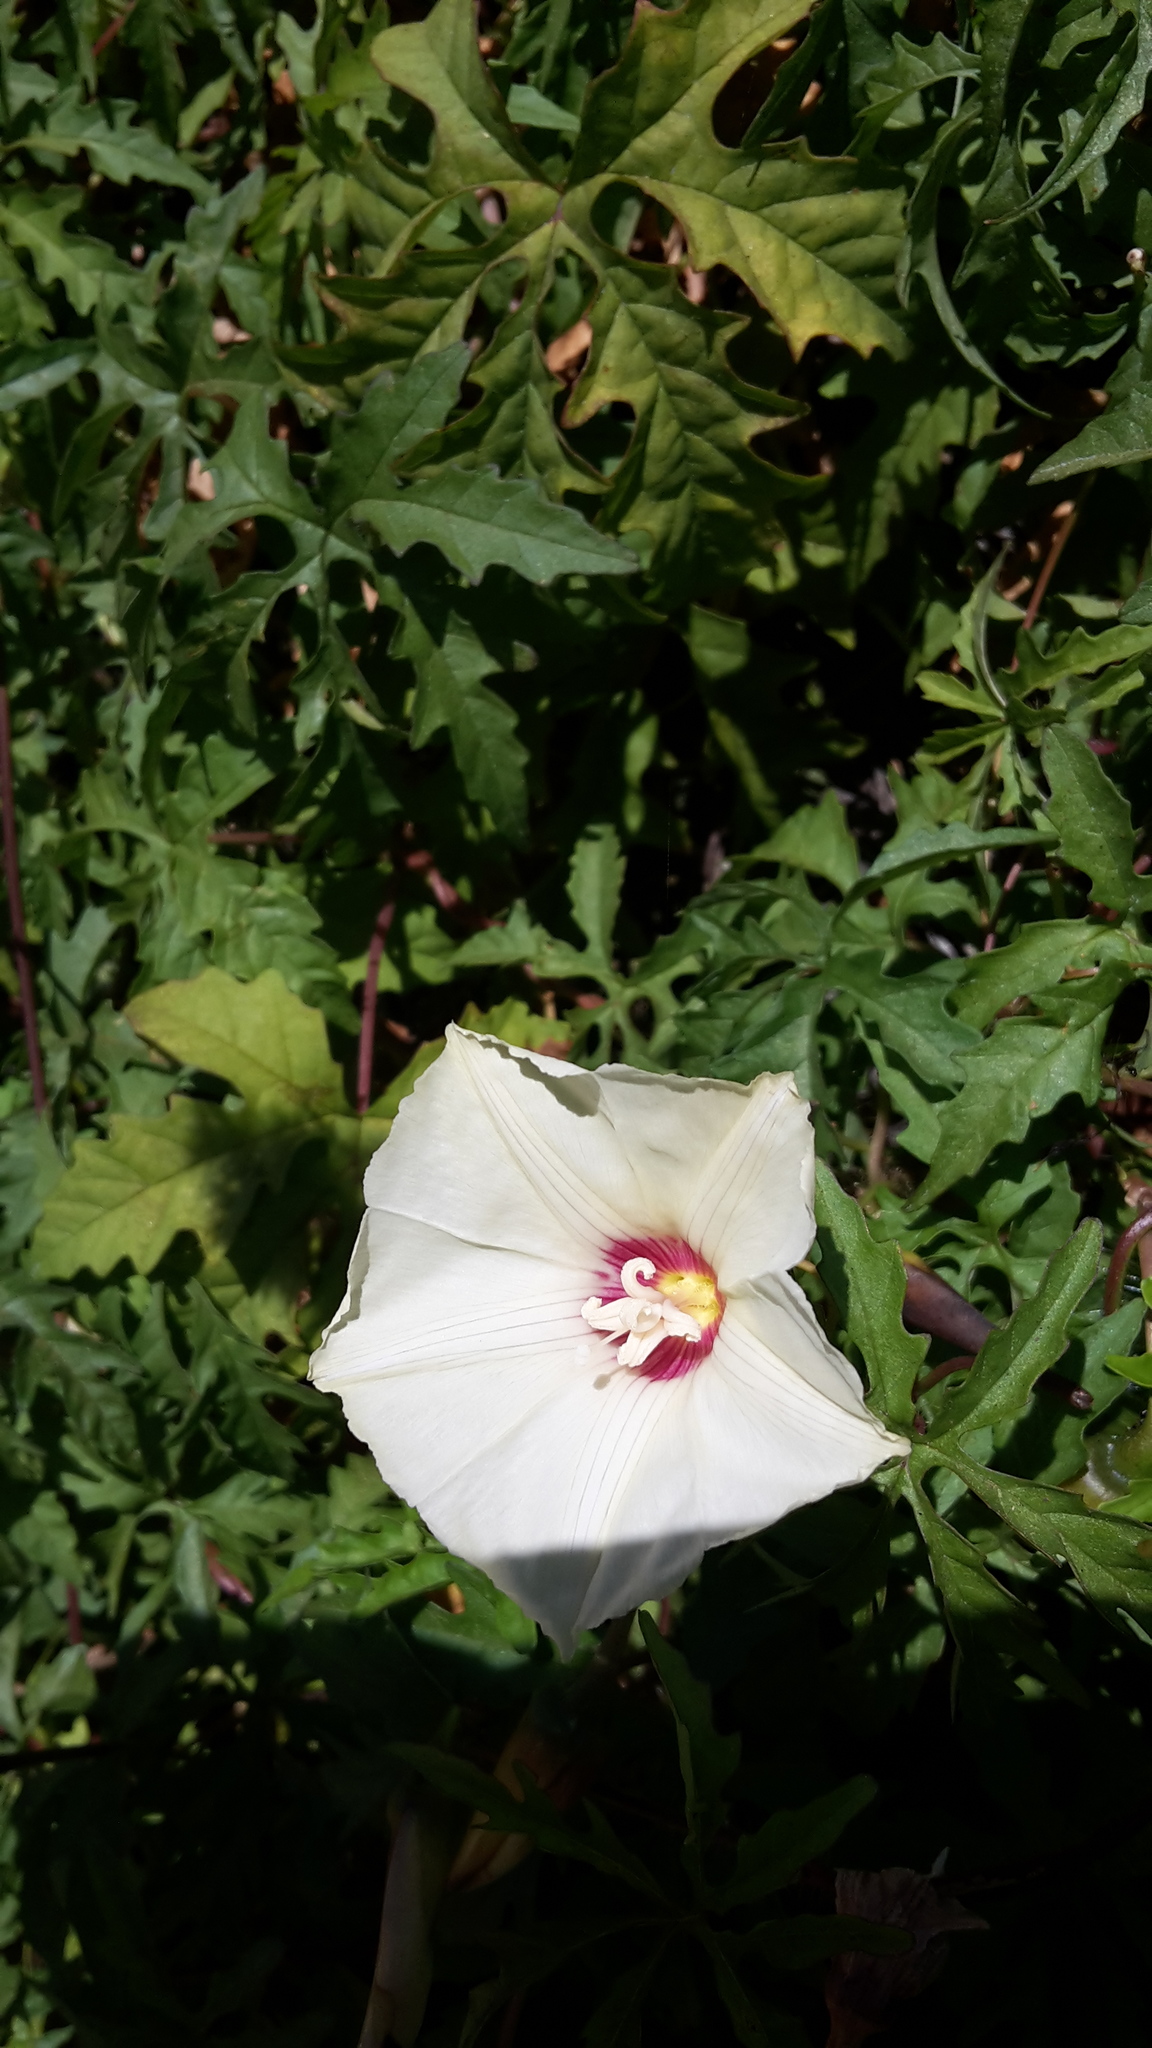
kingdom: Plantae
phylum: Tracheophyta
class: Magnoliopsida
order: Solanales
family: Convolvulaceae
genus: Distimake
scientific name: Distimake dissectus
